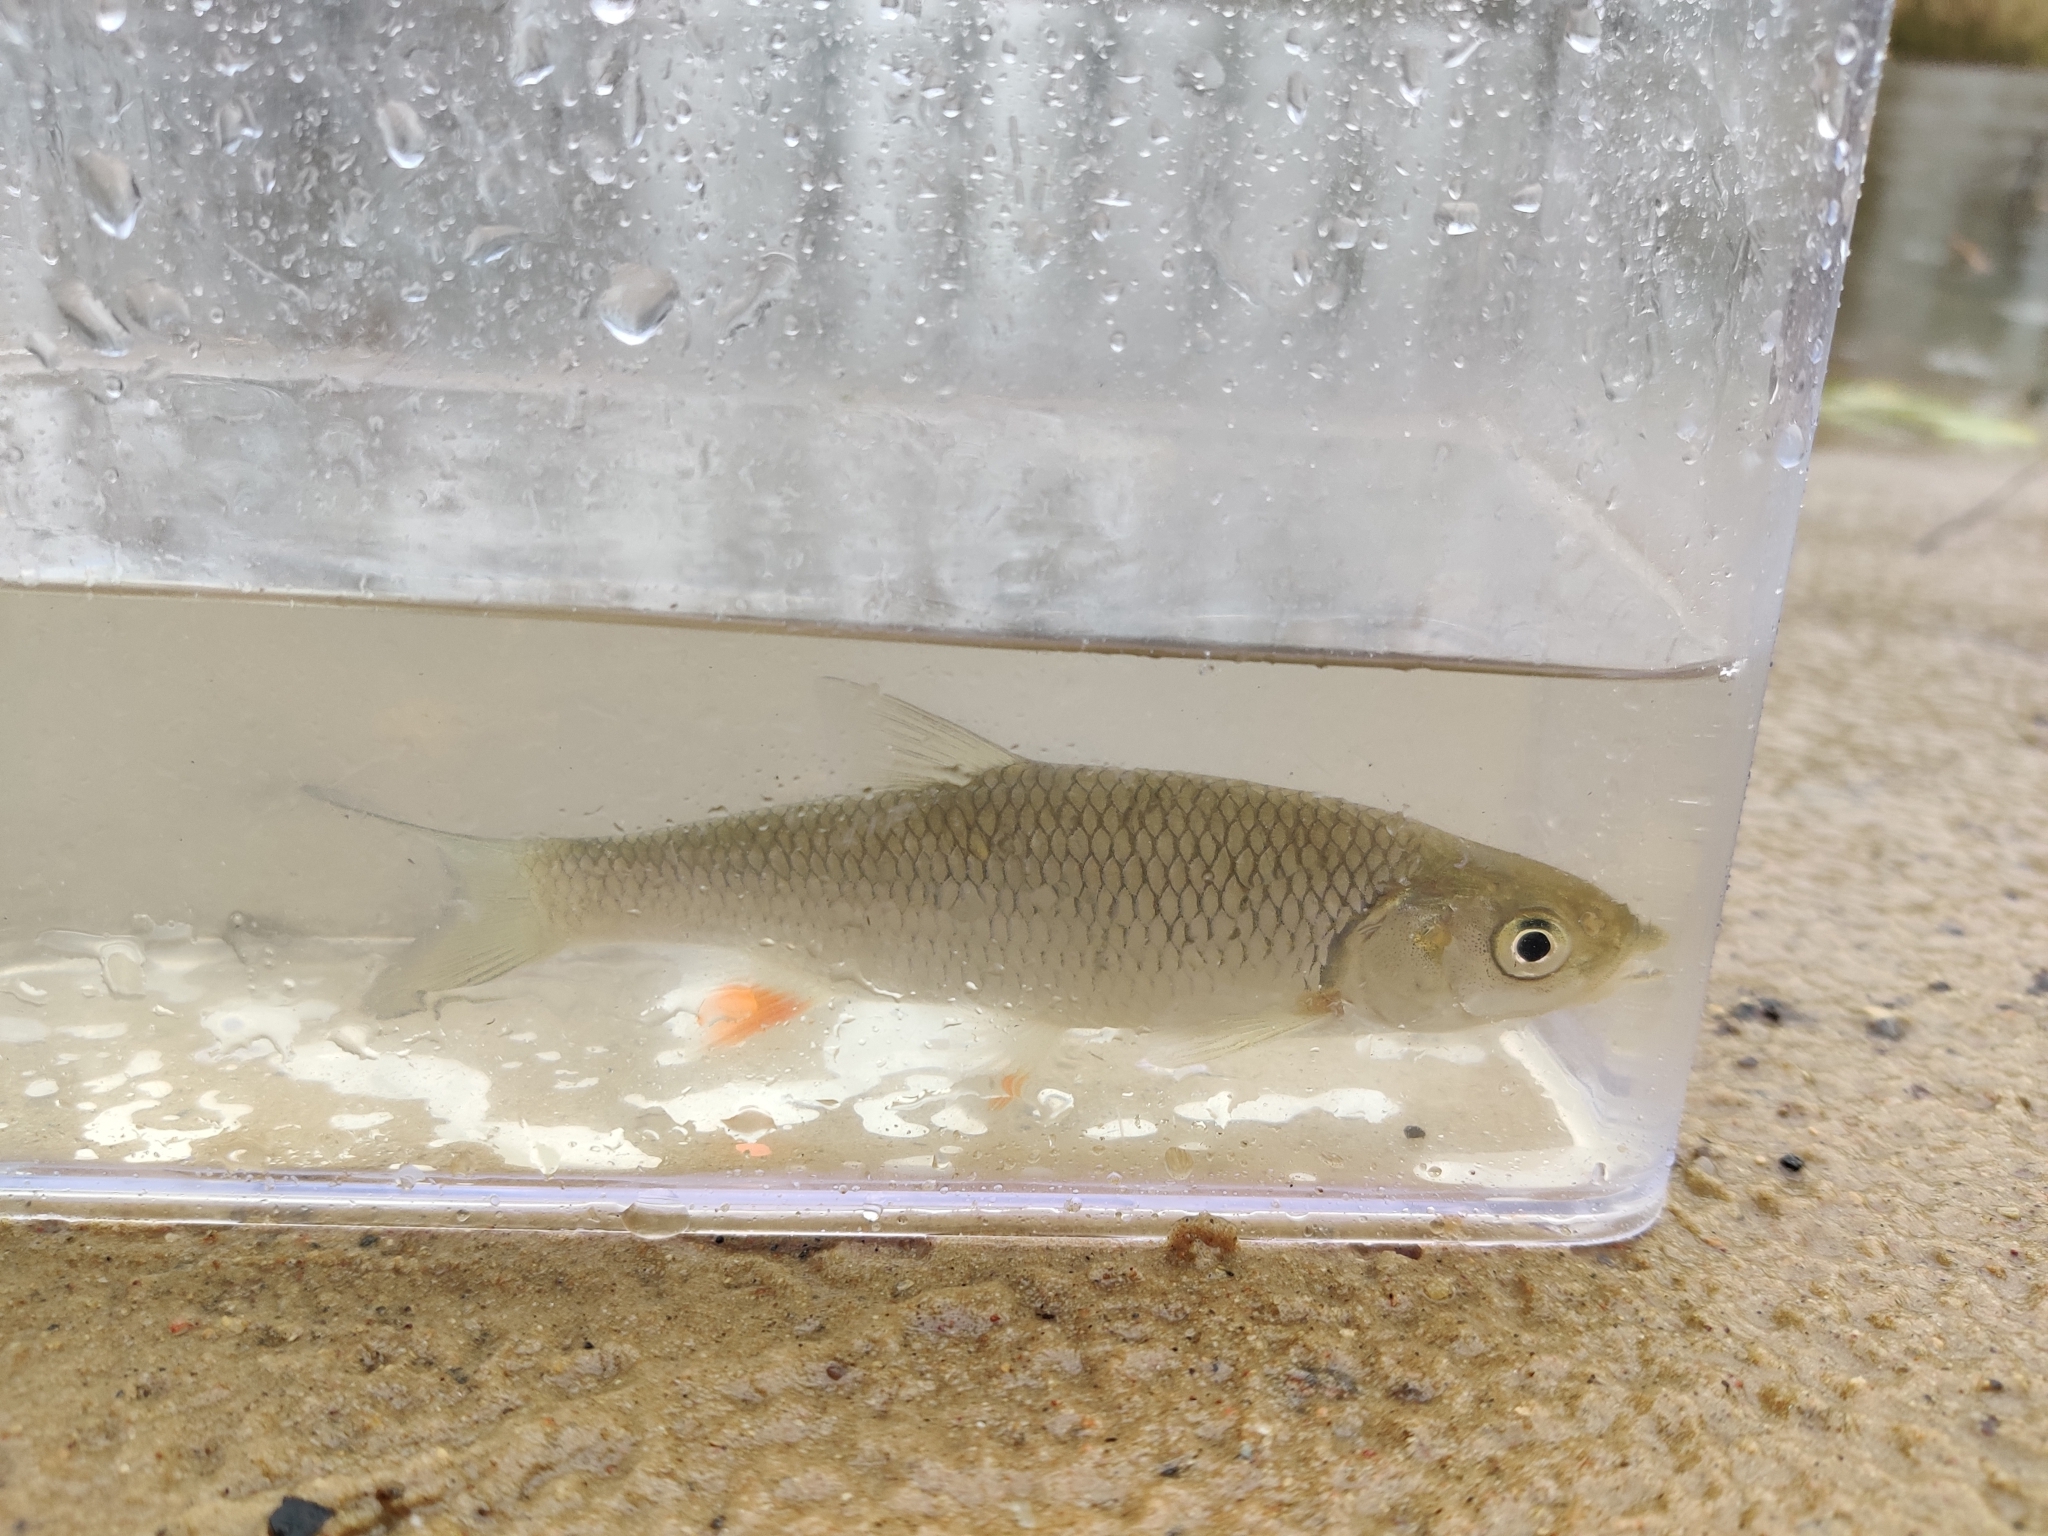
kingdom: Animalia
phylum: Chordata
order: Cypriniformes
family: Cyprinidae
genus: Squalius
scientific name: Squalius cephalus
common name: Chub
